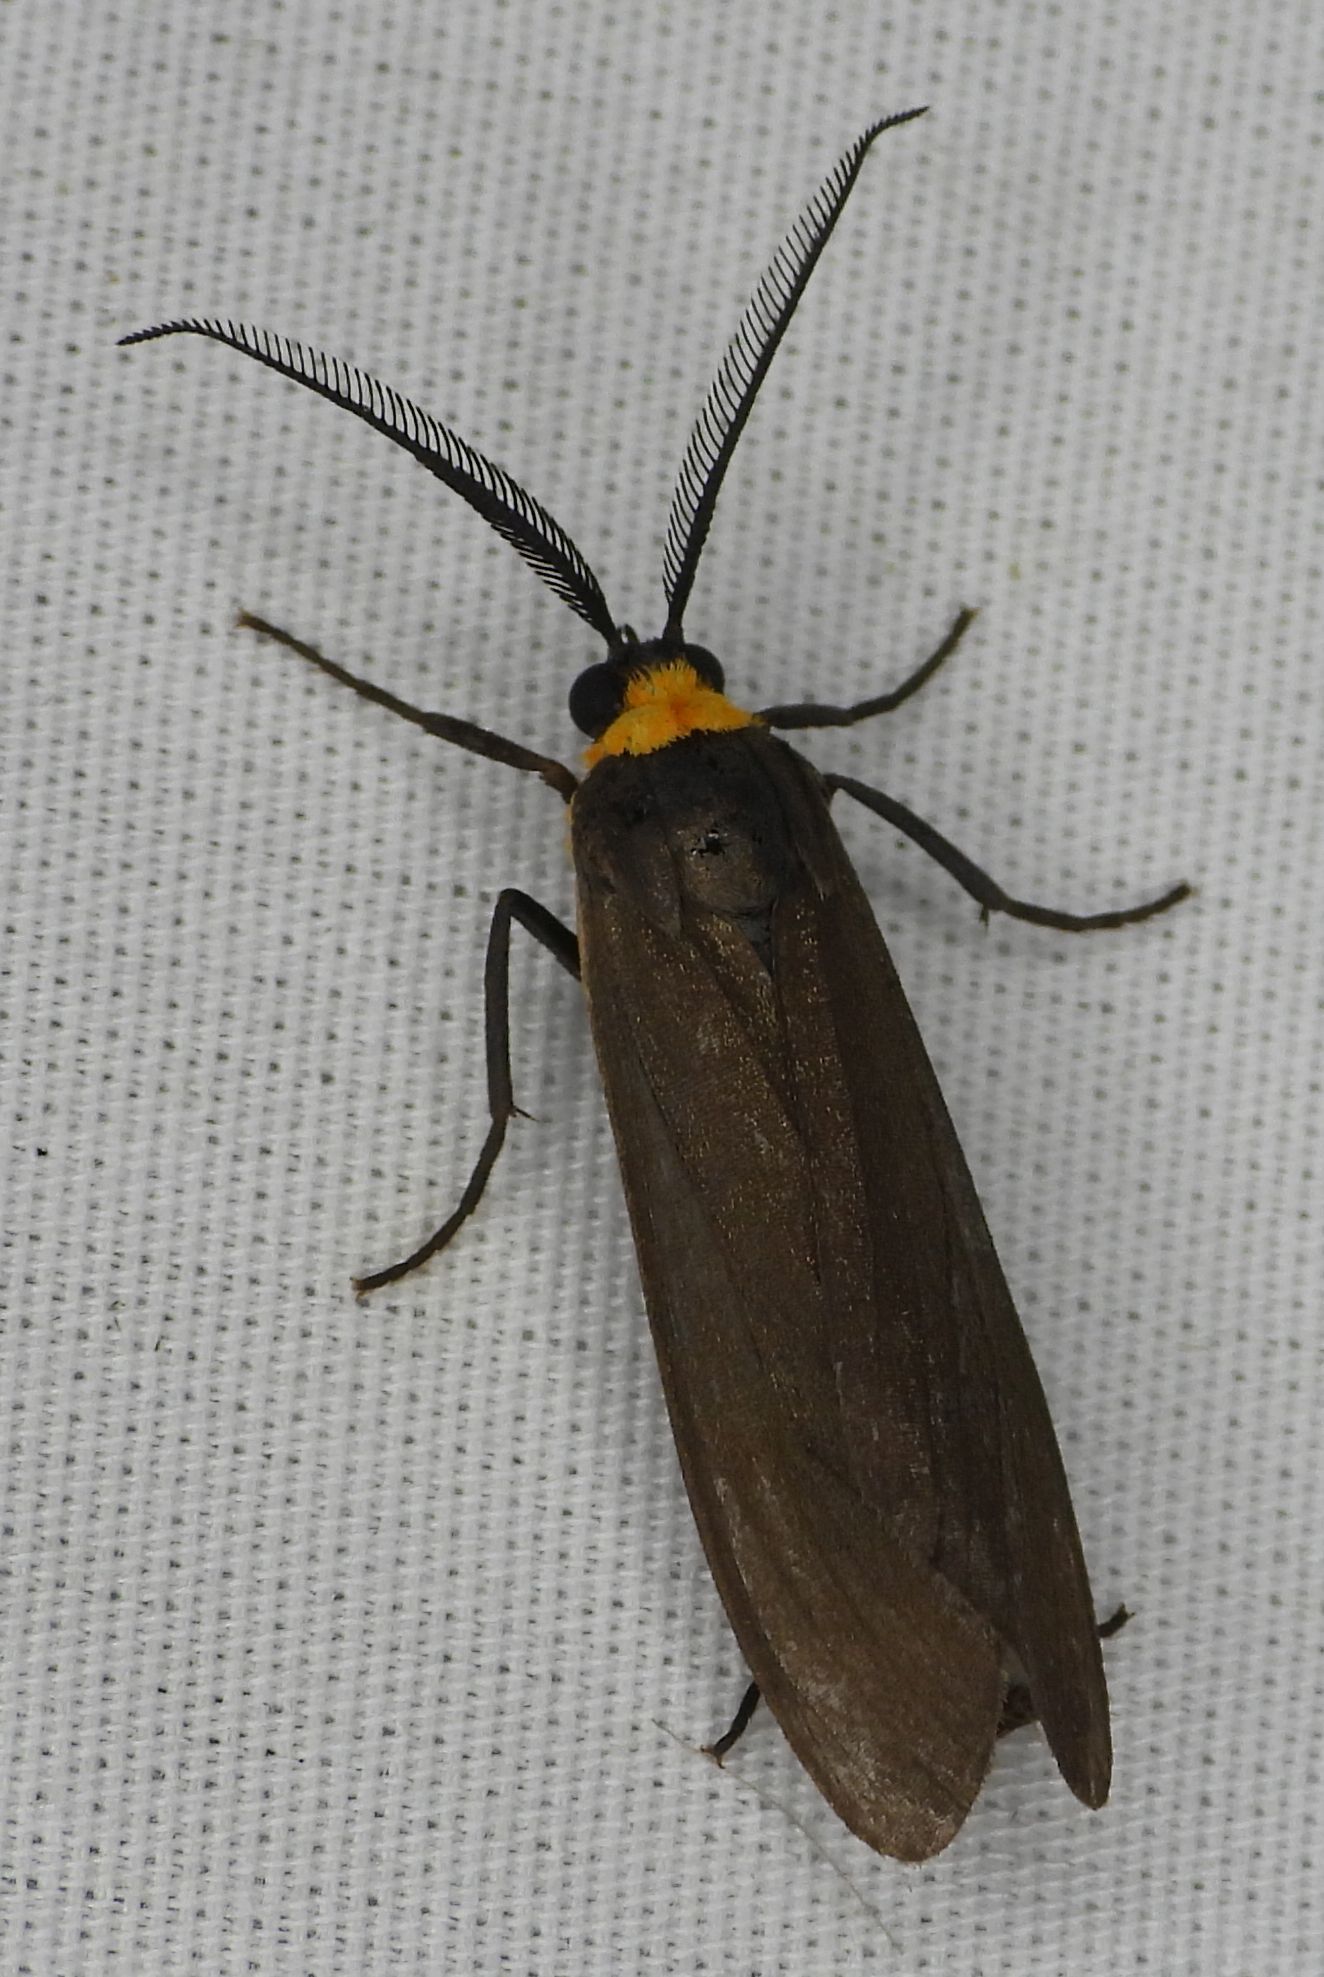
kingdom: Animalia
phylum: Arthropoda
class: Insecta
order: Lepidoptera
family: Erebidae
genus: Cisseps
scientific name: Cisseps fulvicollis
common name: Yellow-collared scape moth
